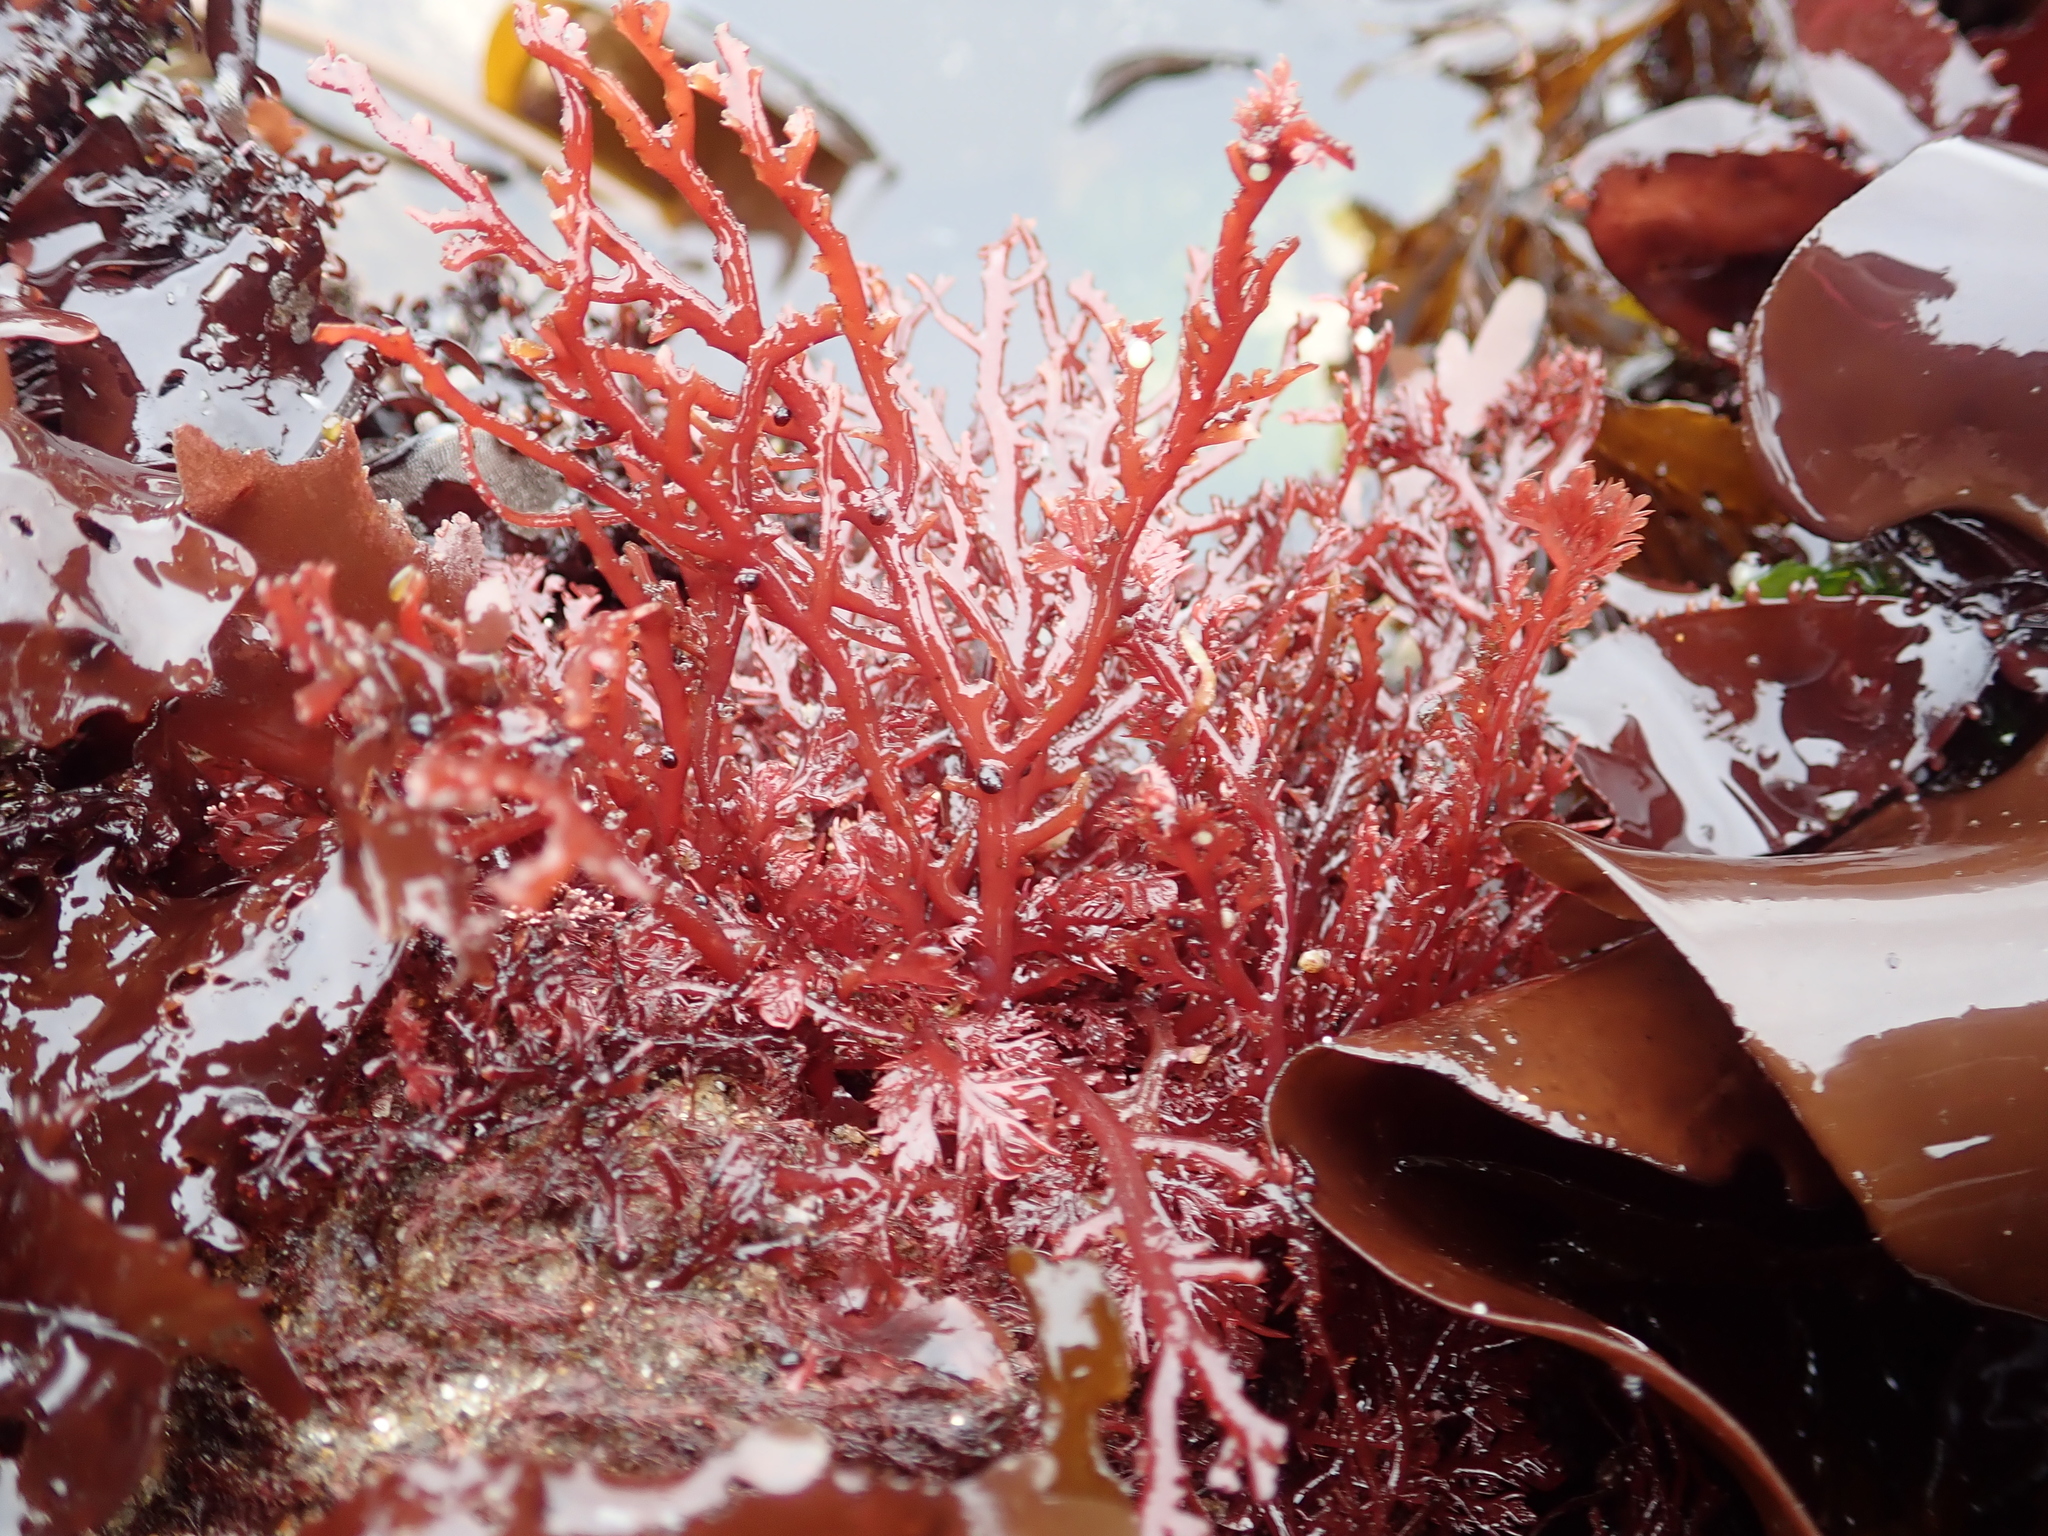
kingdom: Plantae
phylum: Rhodophyta
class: Florideophyceae
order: Plocamiales
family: Plocamiaceae
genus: Plocamium
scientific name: Plocamium cartilagineum
